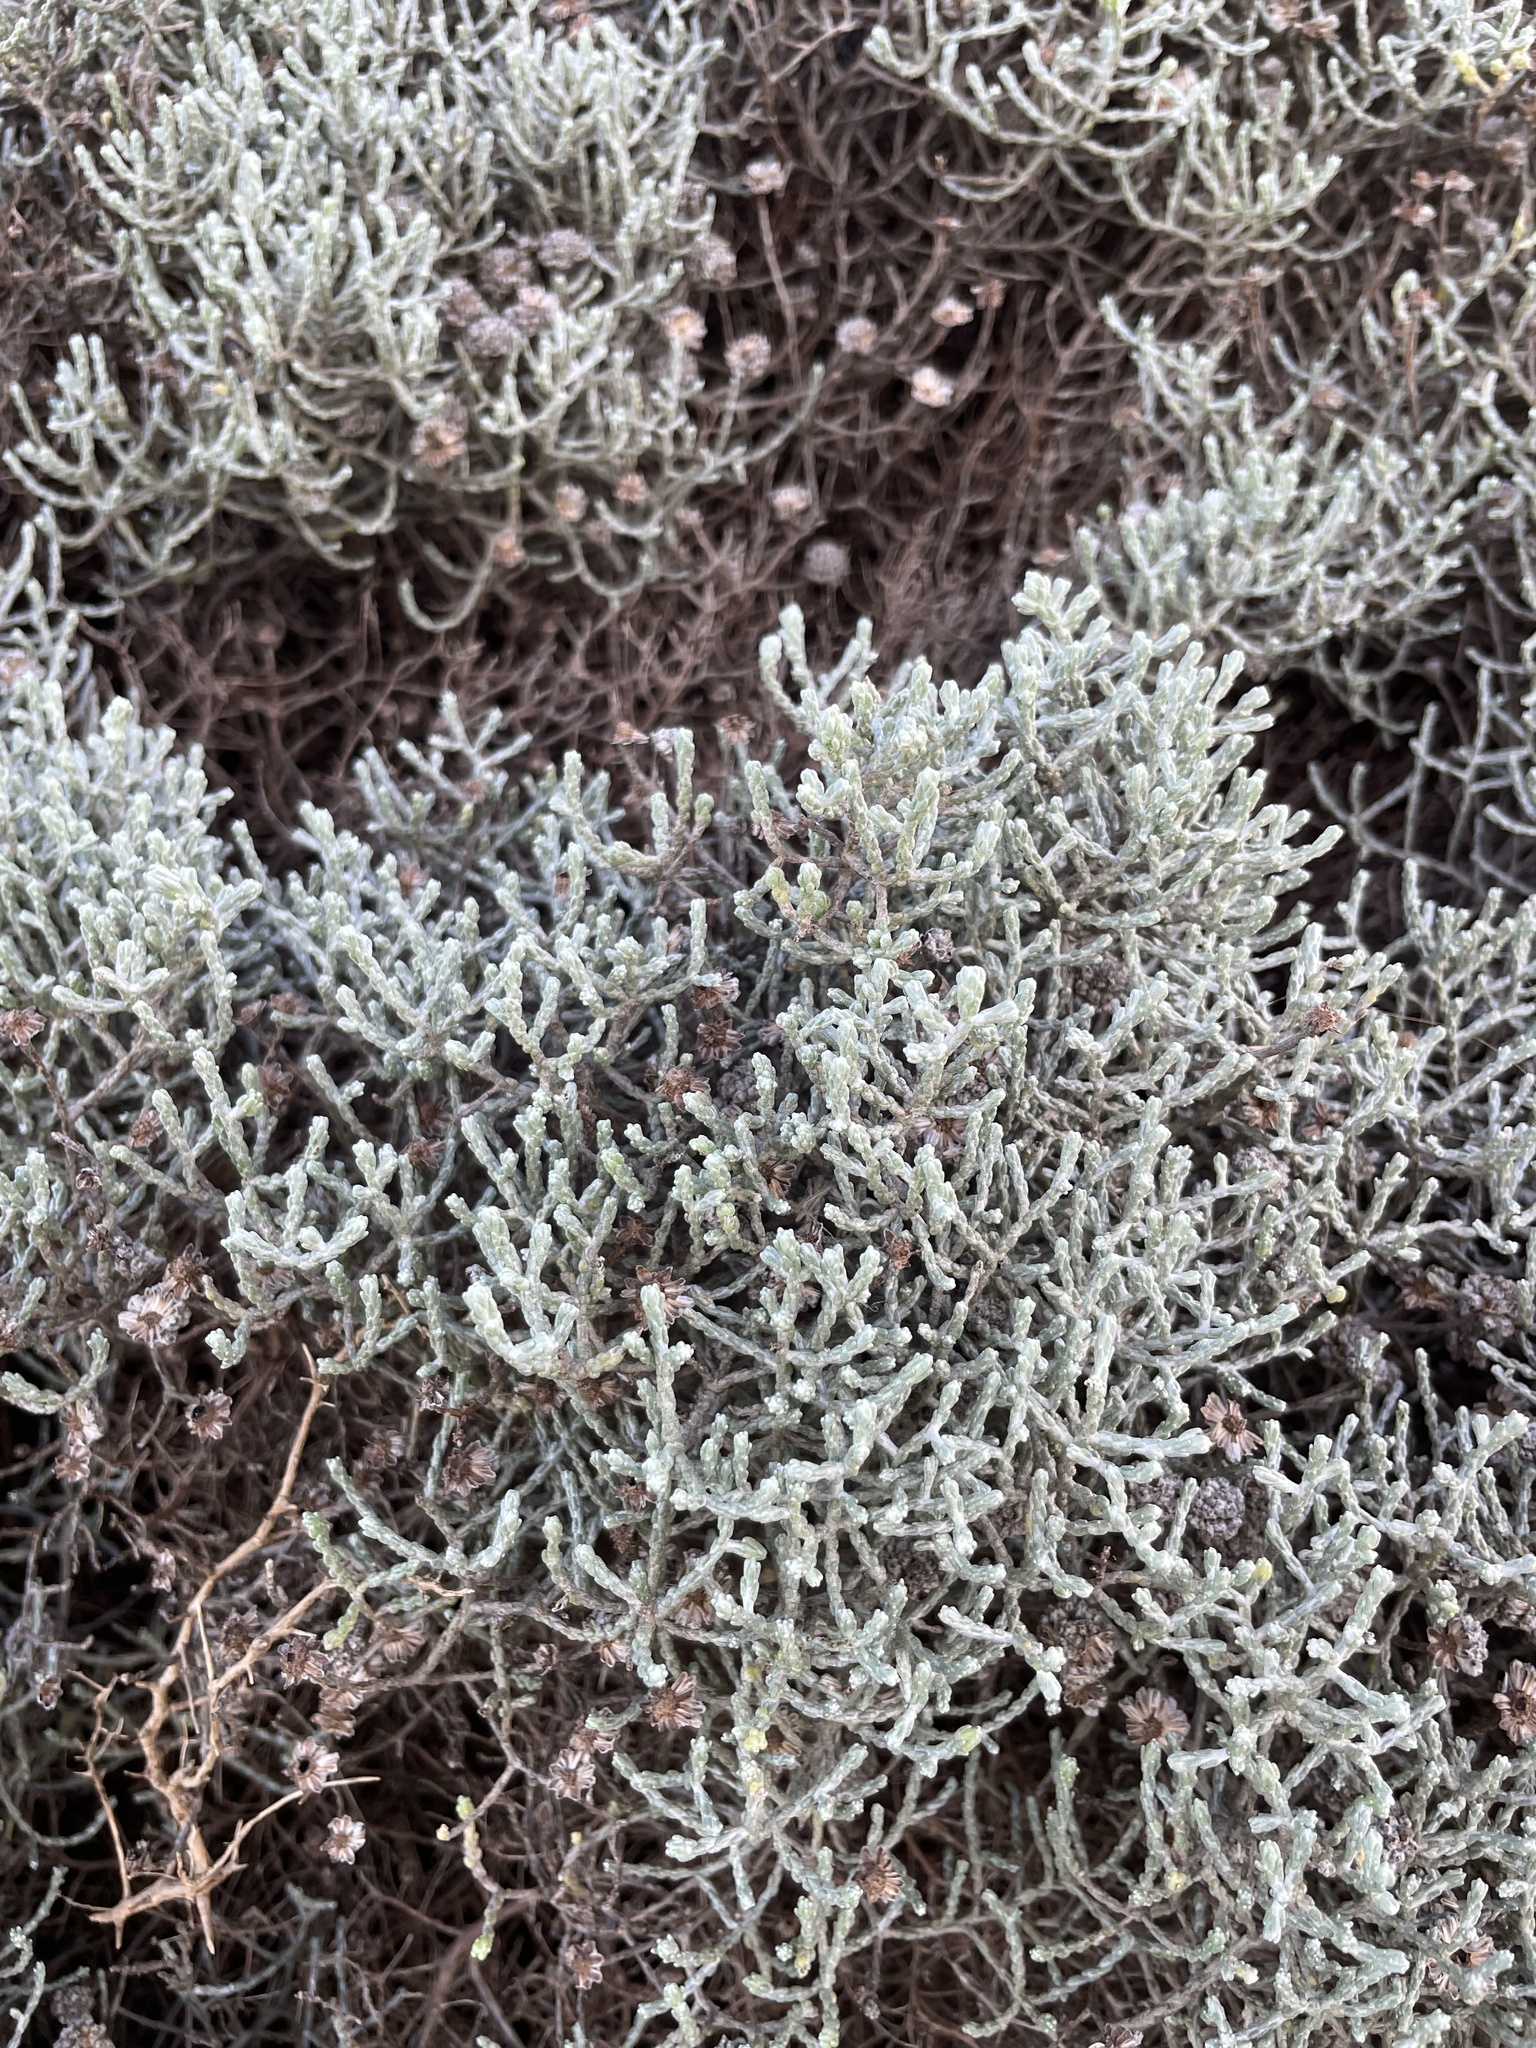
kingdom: Plantae
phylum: Tracheophyta
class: Magnoliopsida
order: Asterales
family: Asteraceae
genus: Calocephalus
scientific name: Calocephalus brownii
